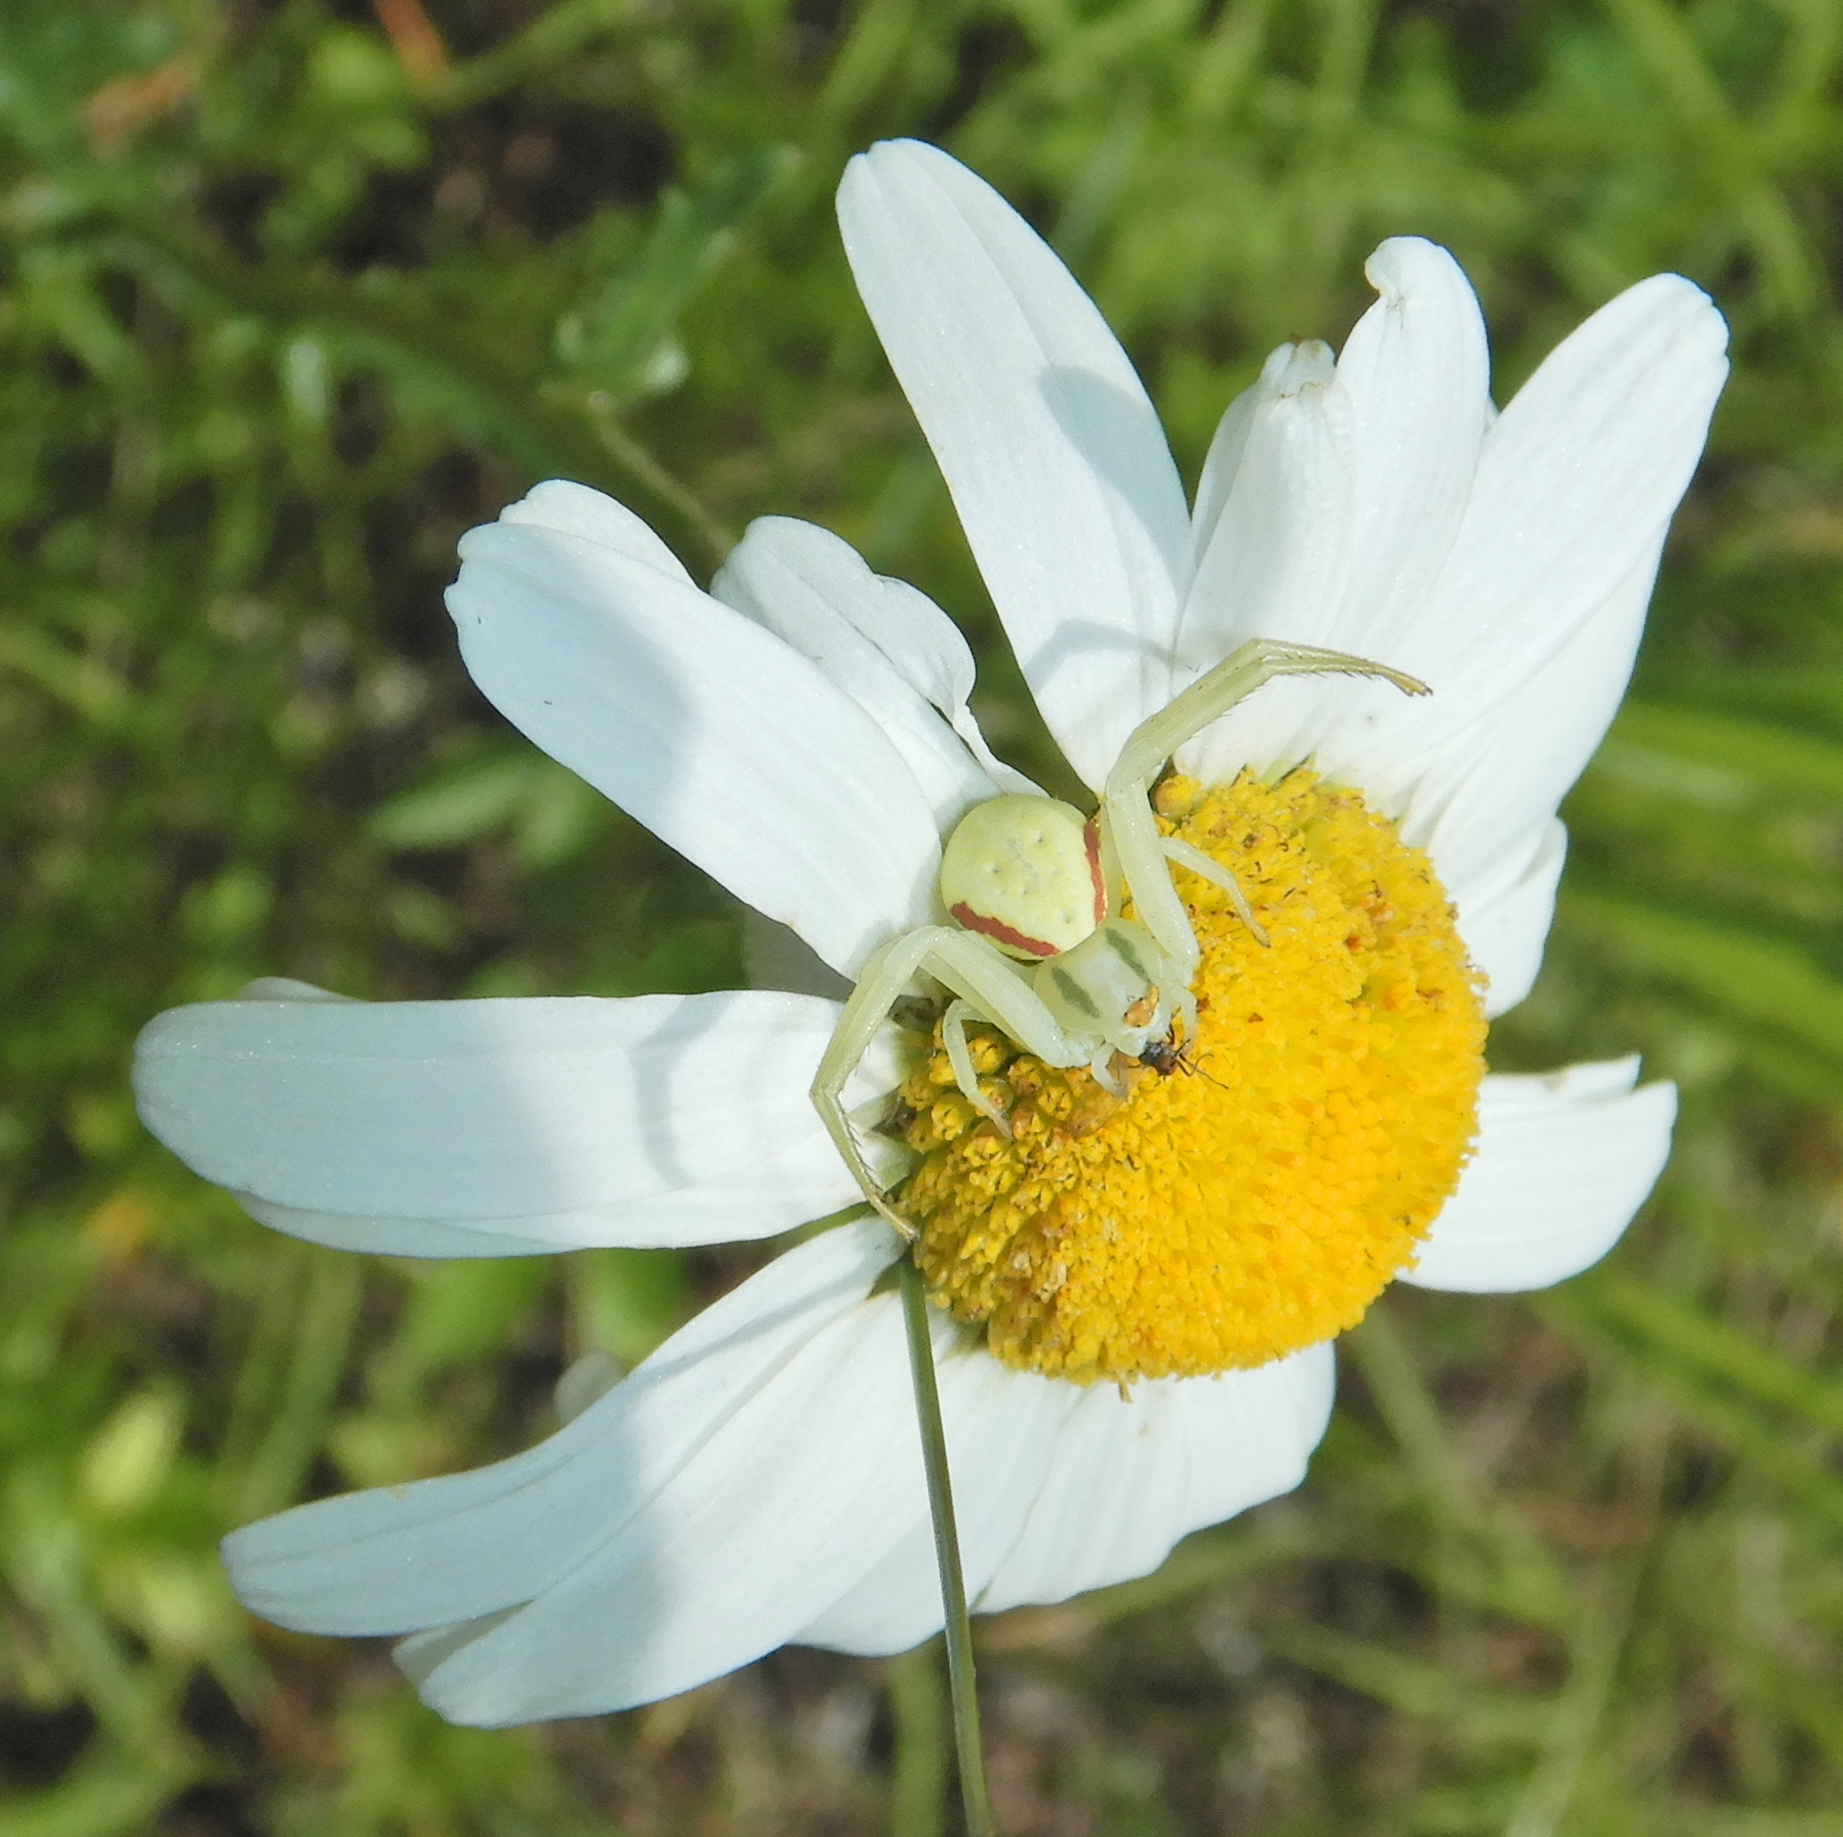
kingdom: Animalia
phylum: Arthropoda
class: Arachnida
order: Araneae
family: Thomisidae
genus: Misumena
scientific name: Misumena vatia
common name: Goldenrod crab spider
